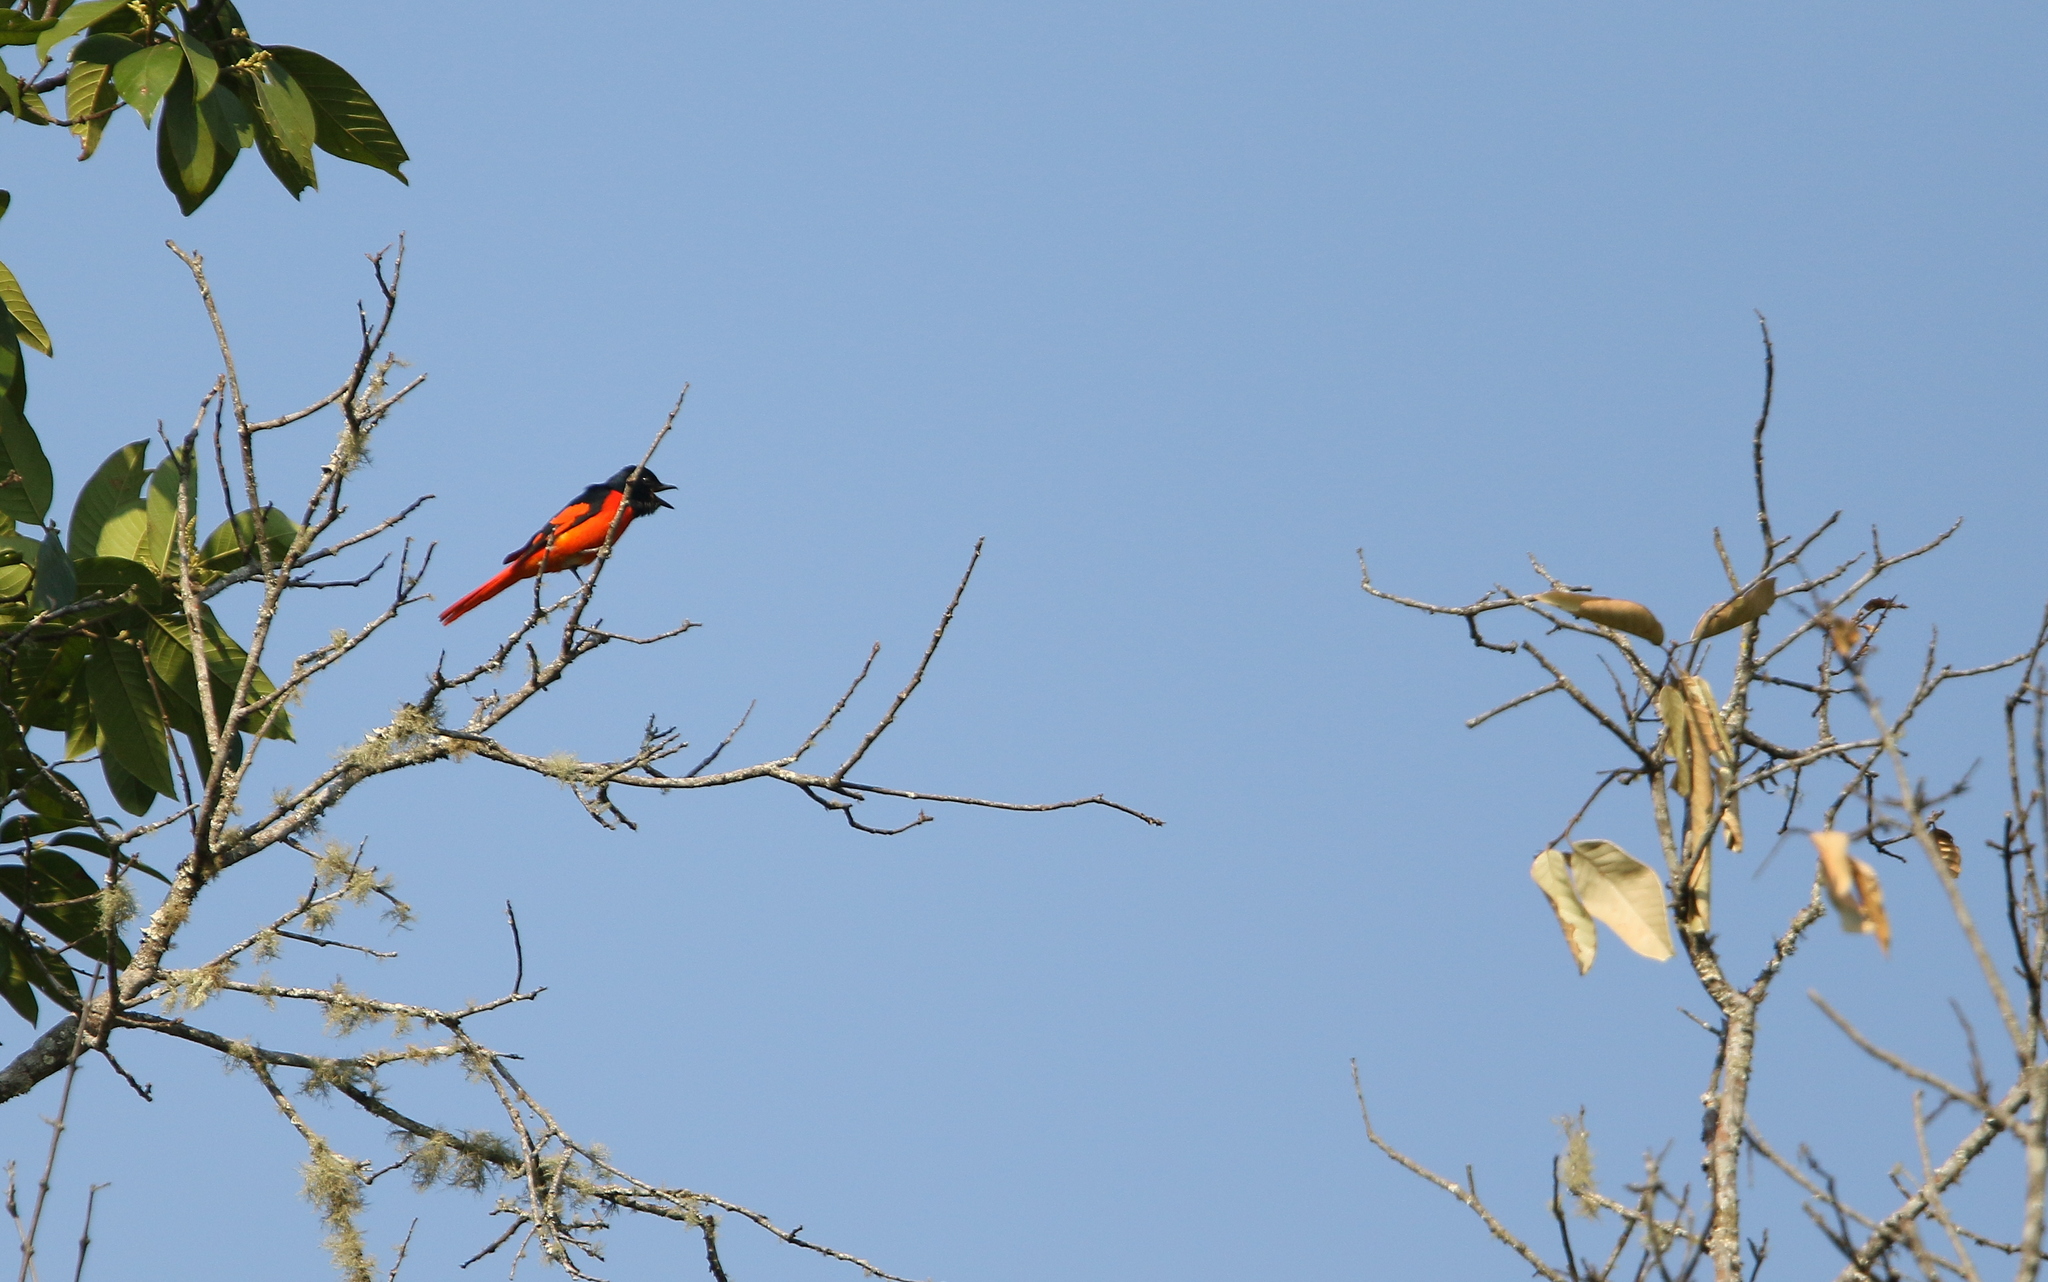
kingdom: Animalia
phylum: Chordata
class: Aves
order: Passeriformes
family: Campephagidae
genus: Pericrocotus
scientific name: Pericrocotus speciosus
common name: Scarlet minivet
